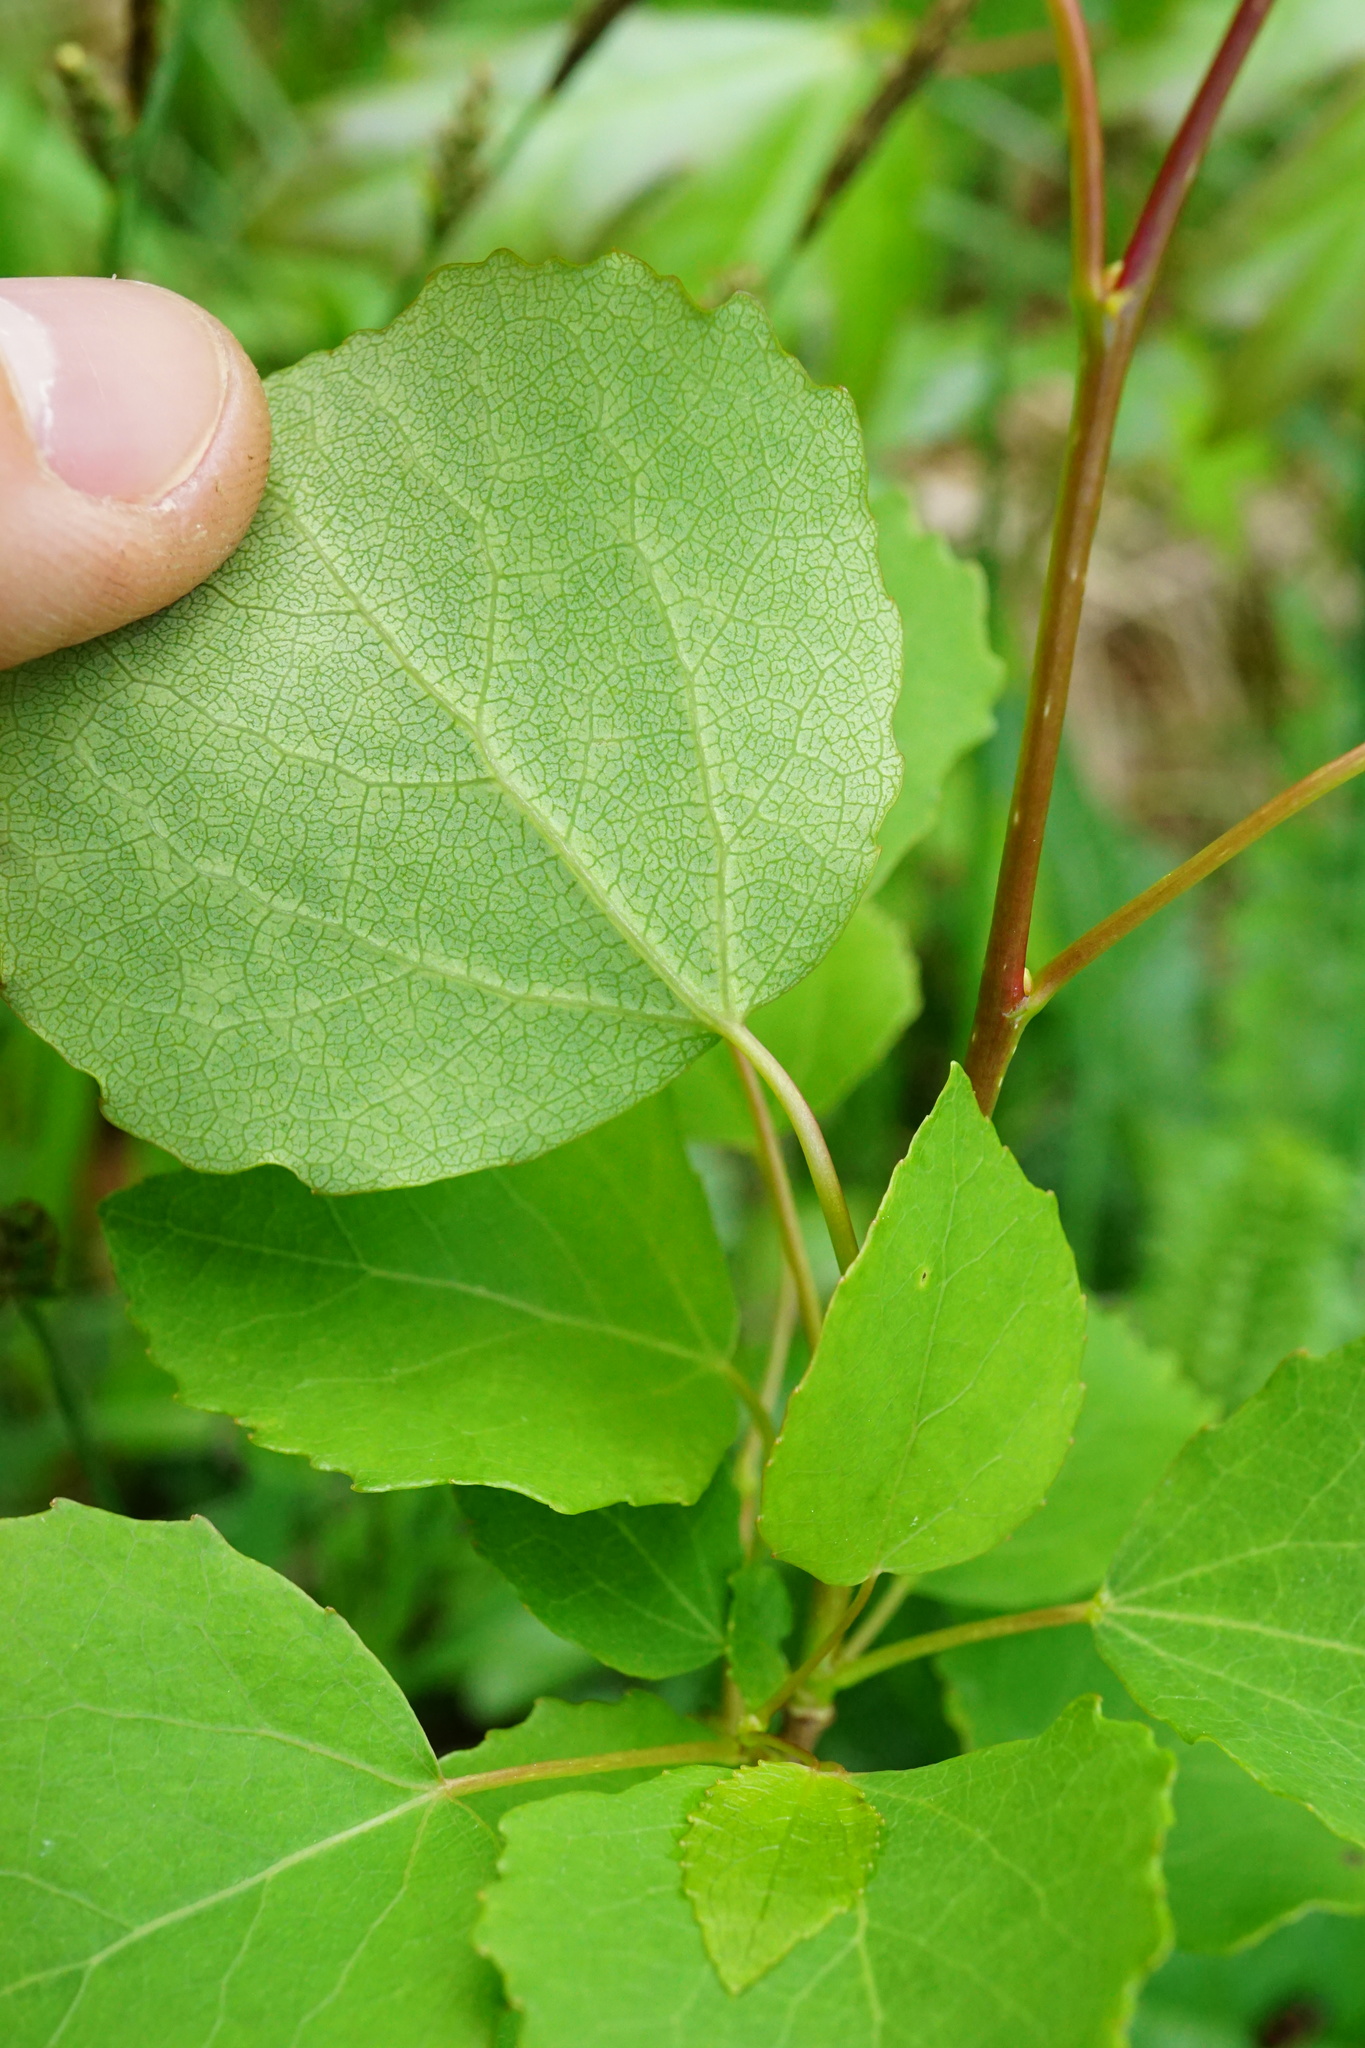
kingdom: Plantae
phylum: Tracheophyta
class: Magnoliopsida
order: Malpighiales
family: Salicaceae
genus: Populus
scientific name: Populus tremula
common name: European aspen
